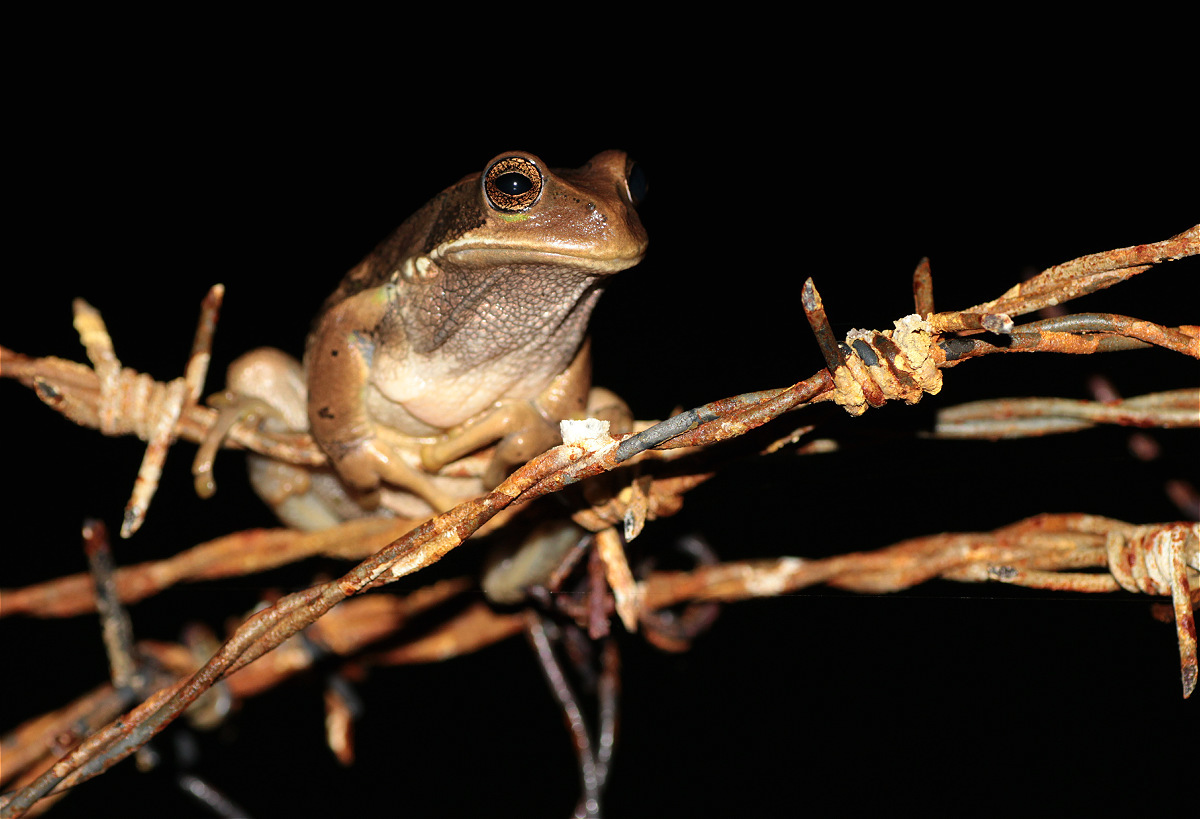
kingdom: Animalia
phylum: Chordata
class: Amphibia
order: Anura
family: Hemiphractidae
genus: Gastrotheca
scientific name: Gastrotheca cuencana
